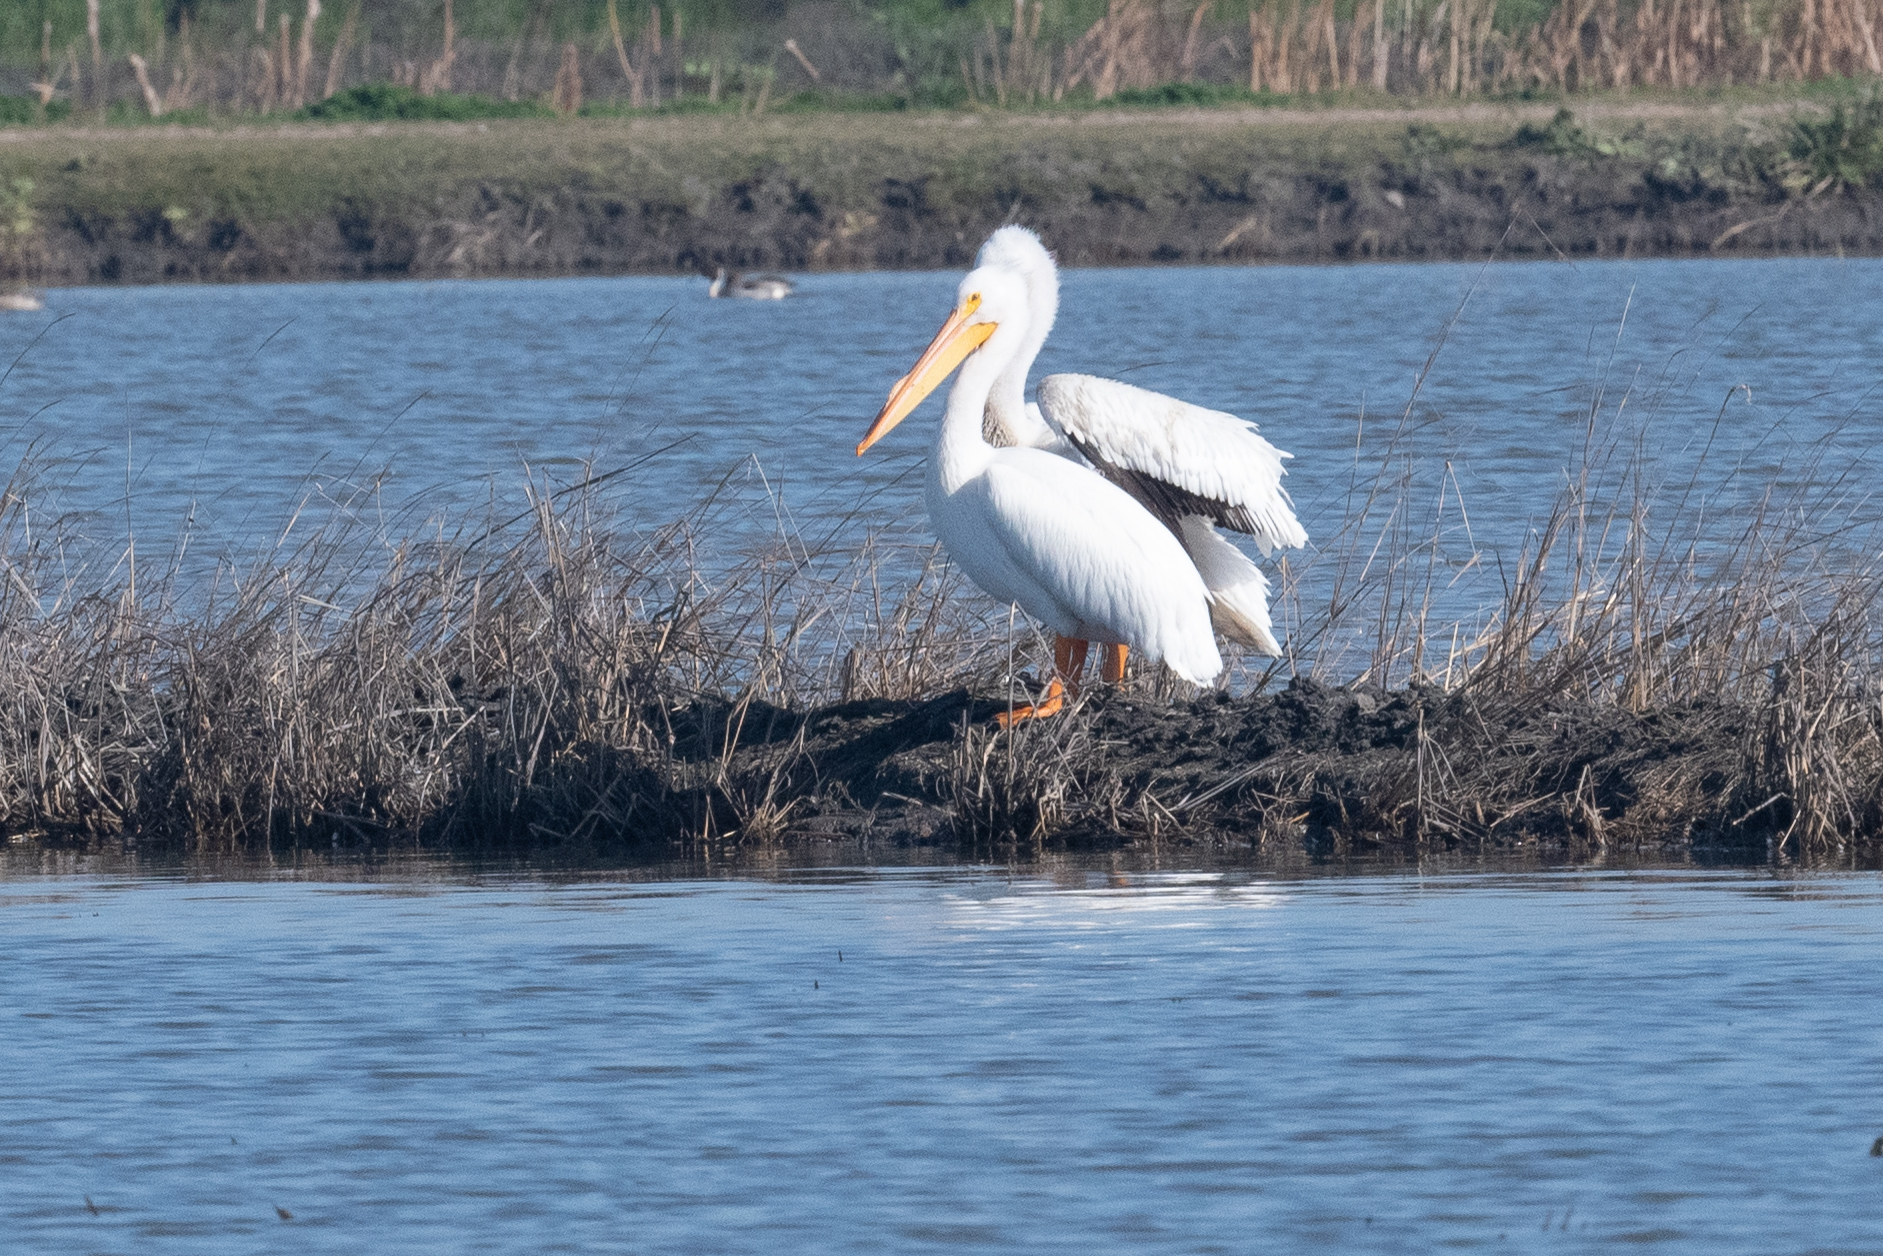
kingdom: Animalia
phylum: Chordata
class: Aves
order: Pelecaniformes
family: Pelecanidae
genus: Pelecanus
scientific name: Pelecanus erythrorhynchos
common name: American white pelican
